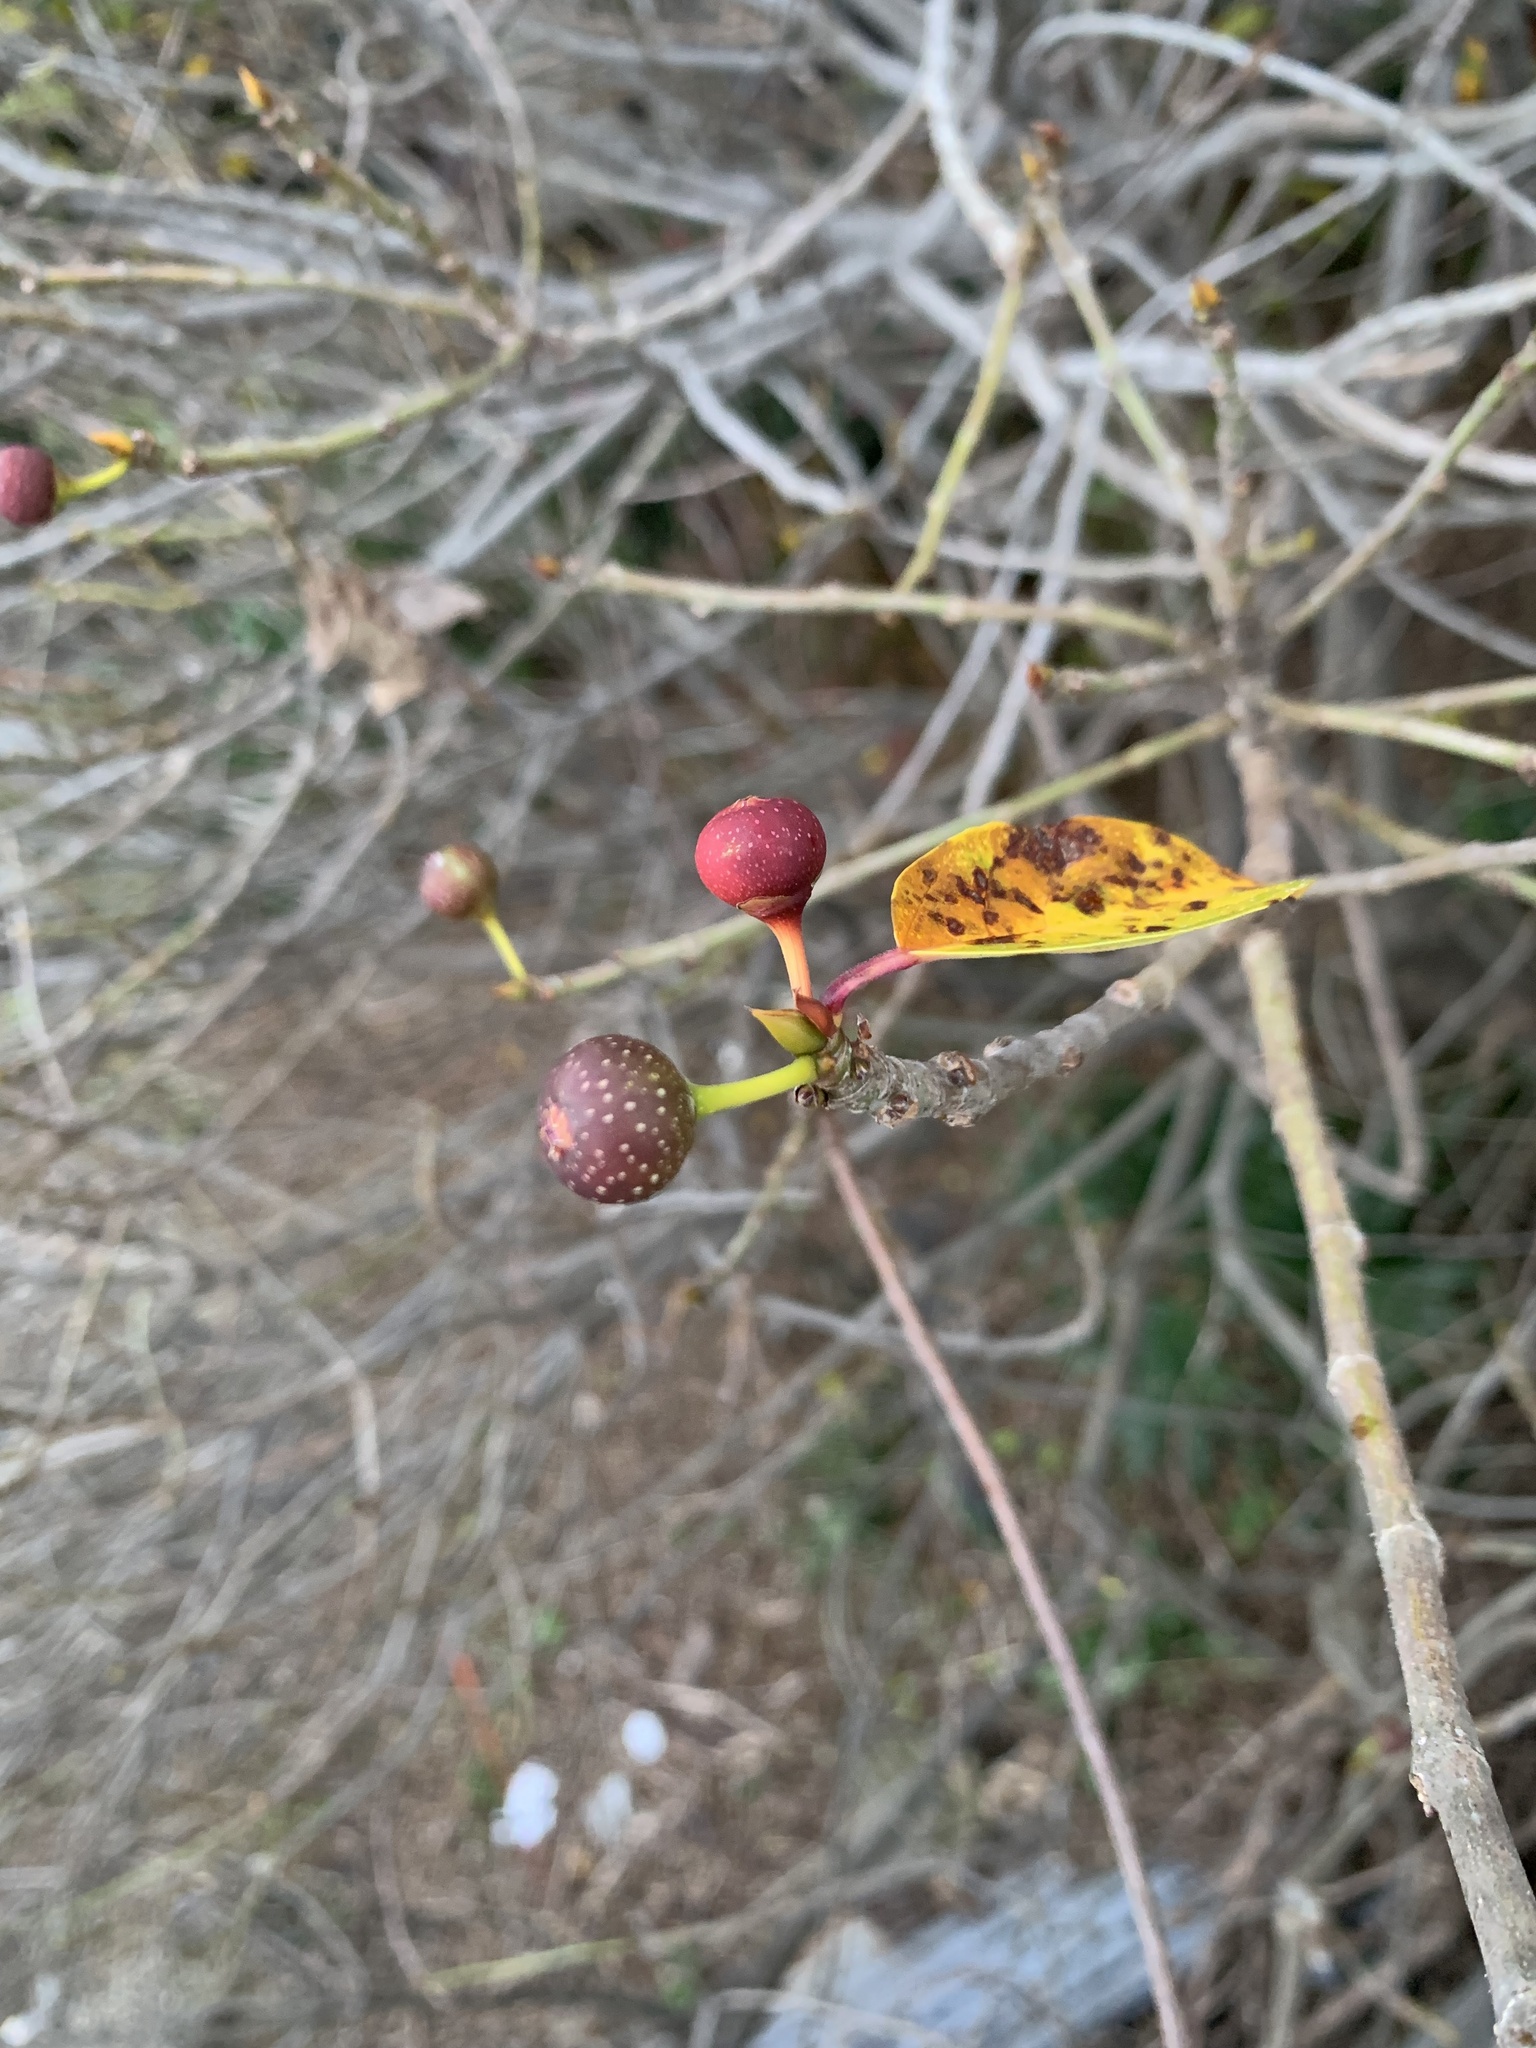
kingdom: Plantae
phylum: Tracheophyta
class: Magnoliopsida
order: Rosales
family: Moraceae
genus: Ficus
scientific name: Ficus erecta
